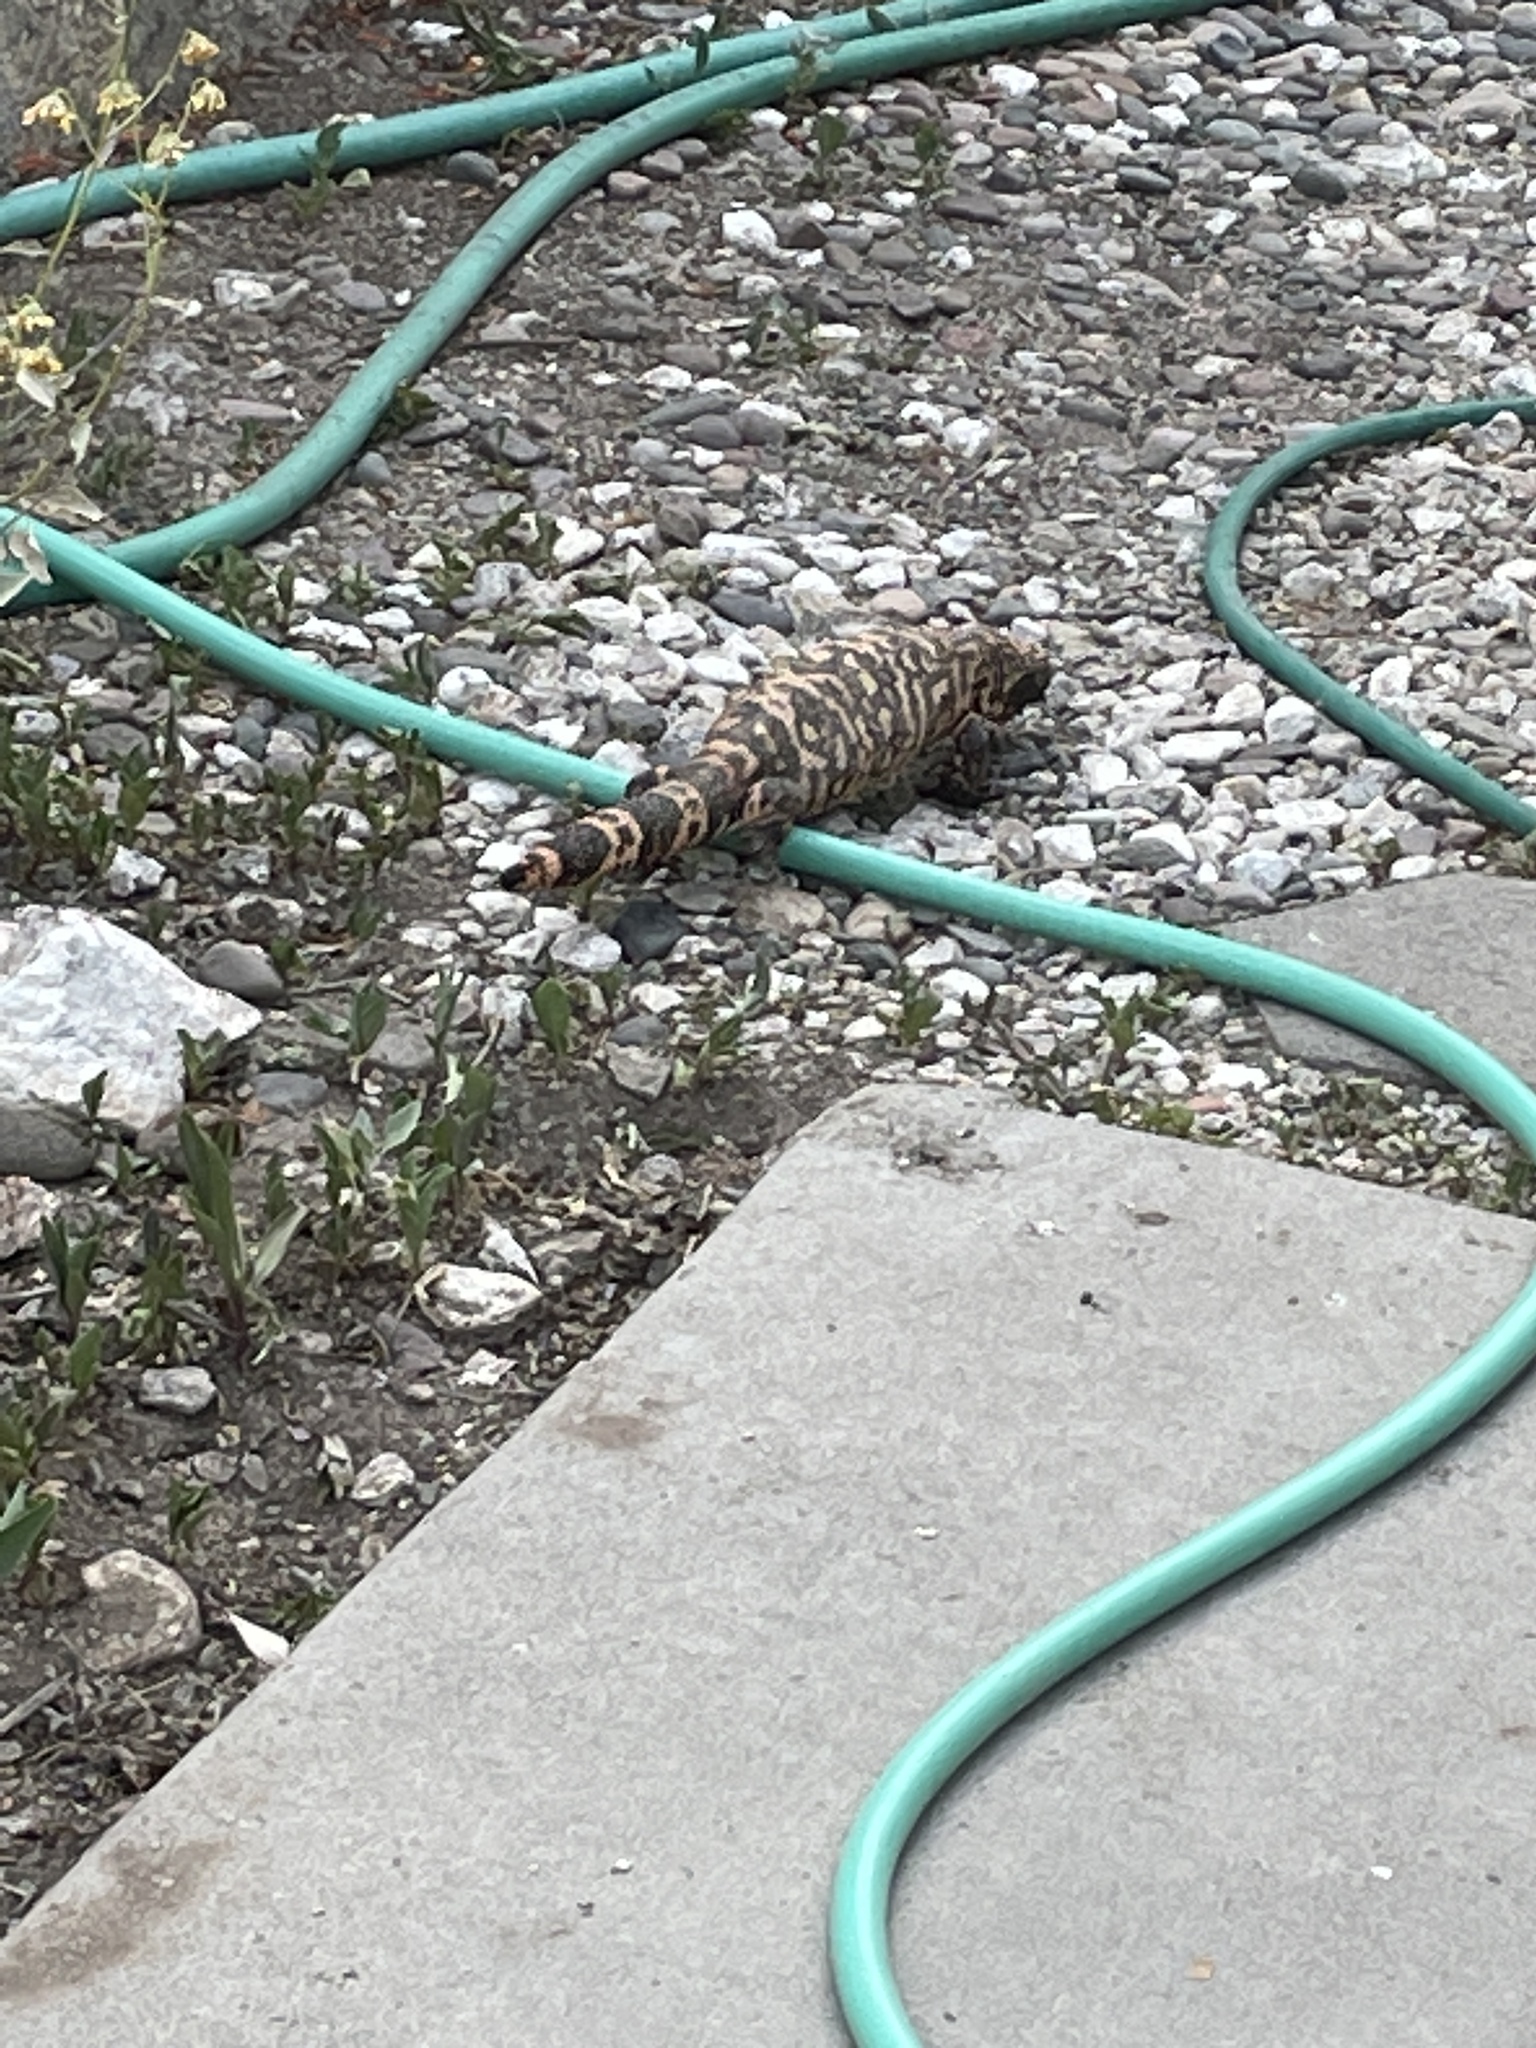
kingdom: Animalia
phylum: Chordata
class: Squamata
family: Helodermatidae
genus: Heloderma
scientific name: Heloderma suspectum
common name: Gila monster
